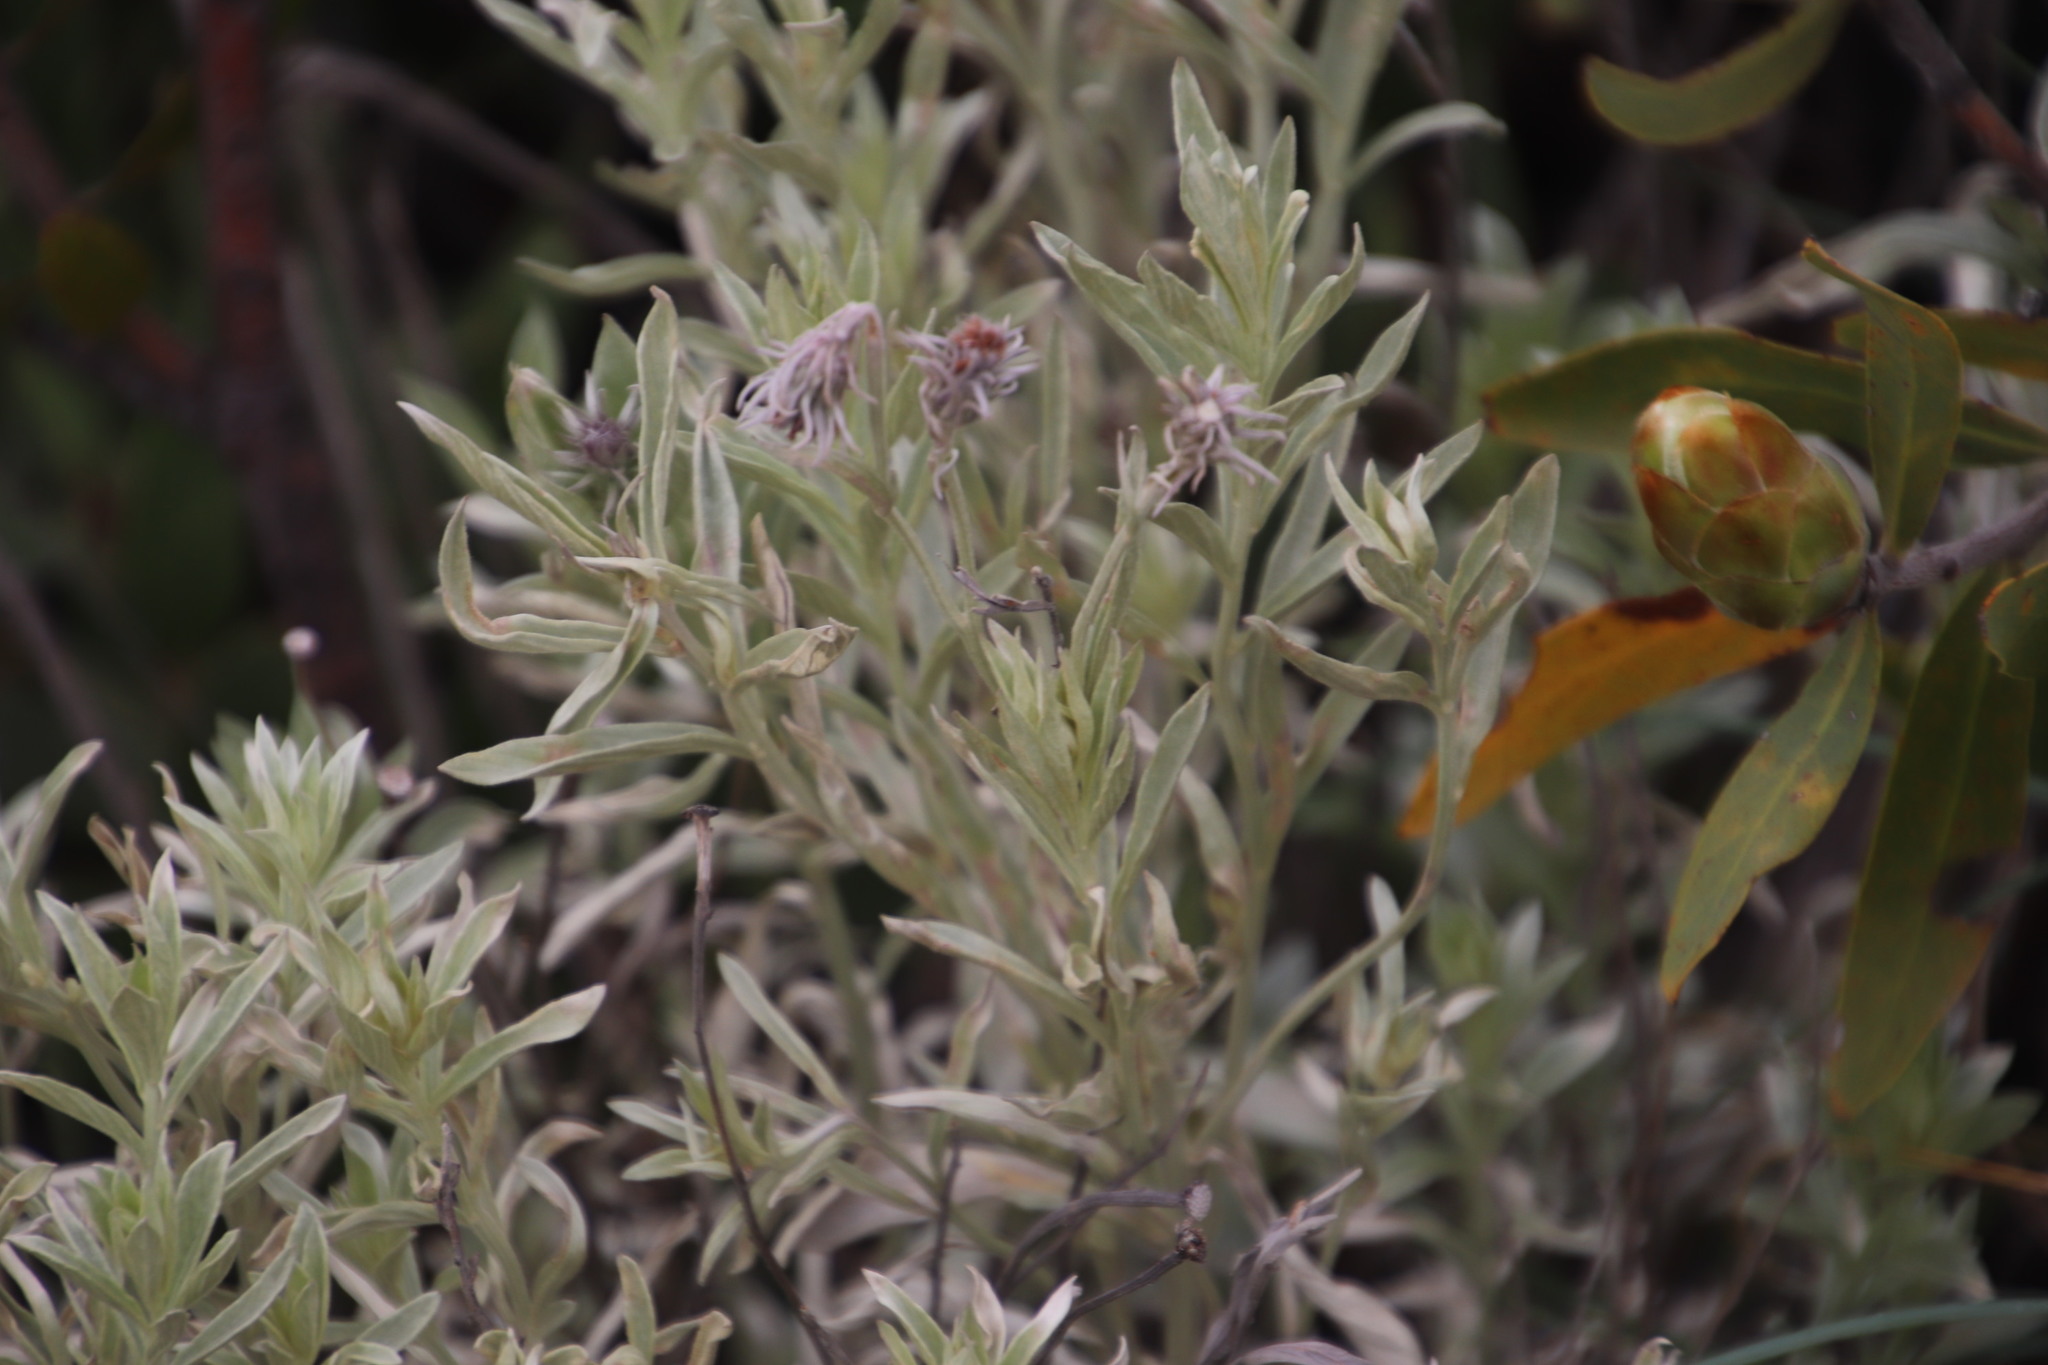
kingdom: Plantae
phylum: Tracheophyta
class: Magnoliopsida
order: Asterales
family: Asteraceae
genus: Hilliardiella
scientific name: Hilliardiella aristata
